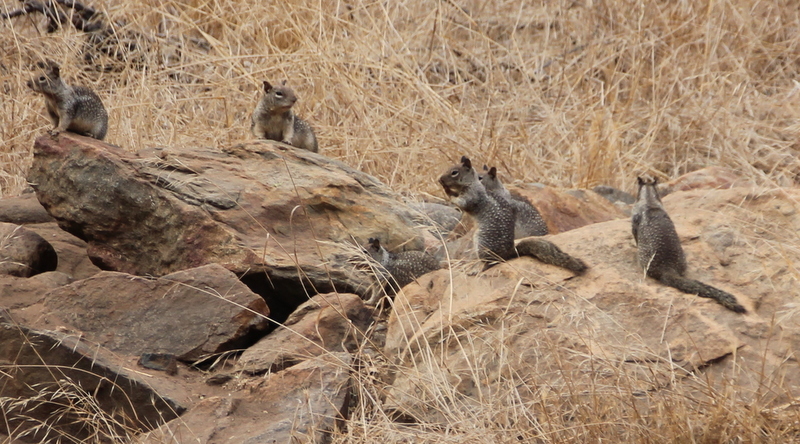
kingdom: Animalia
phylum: Chordata
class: Mammalia
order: Rodentia
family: Sciuridae
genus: Otospermophilus
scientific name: Otospermophilus beecheyi
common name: California ground squirrel
